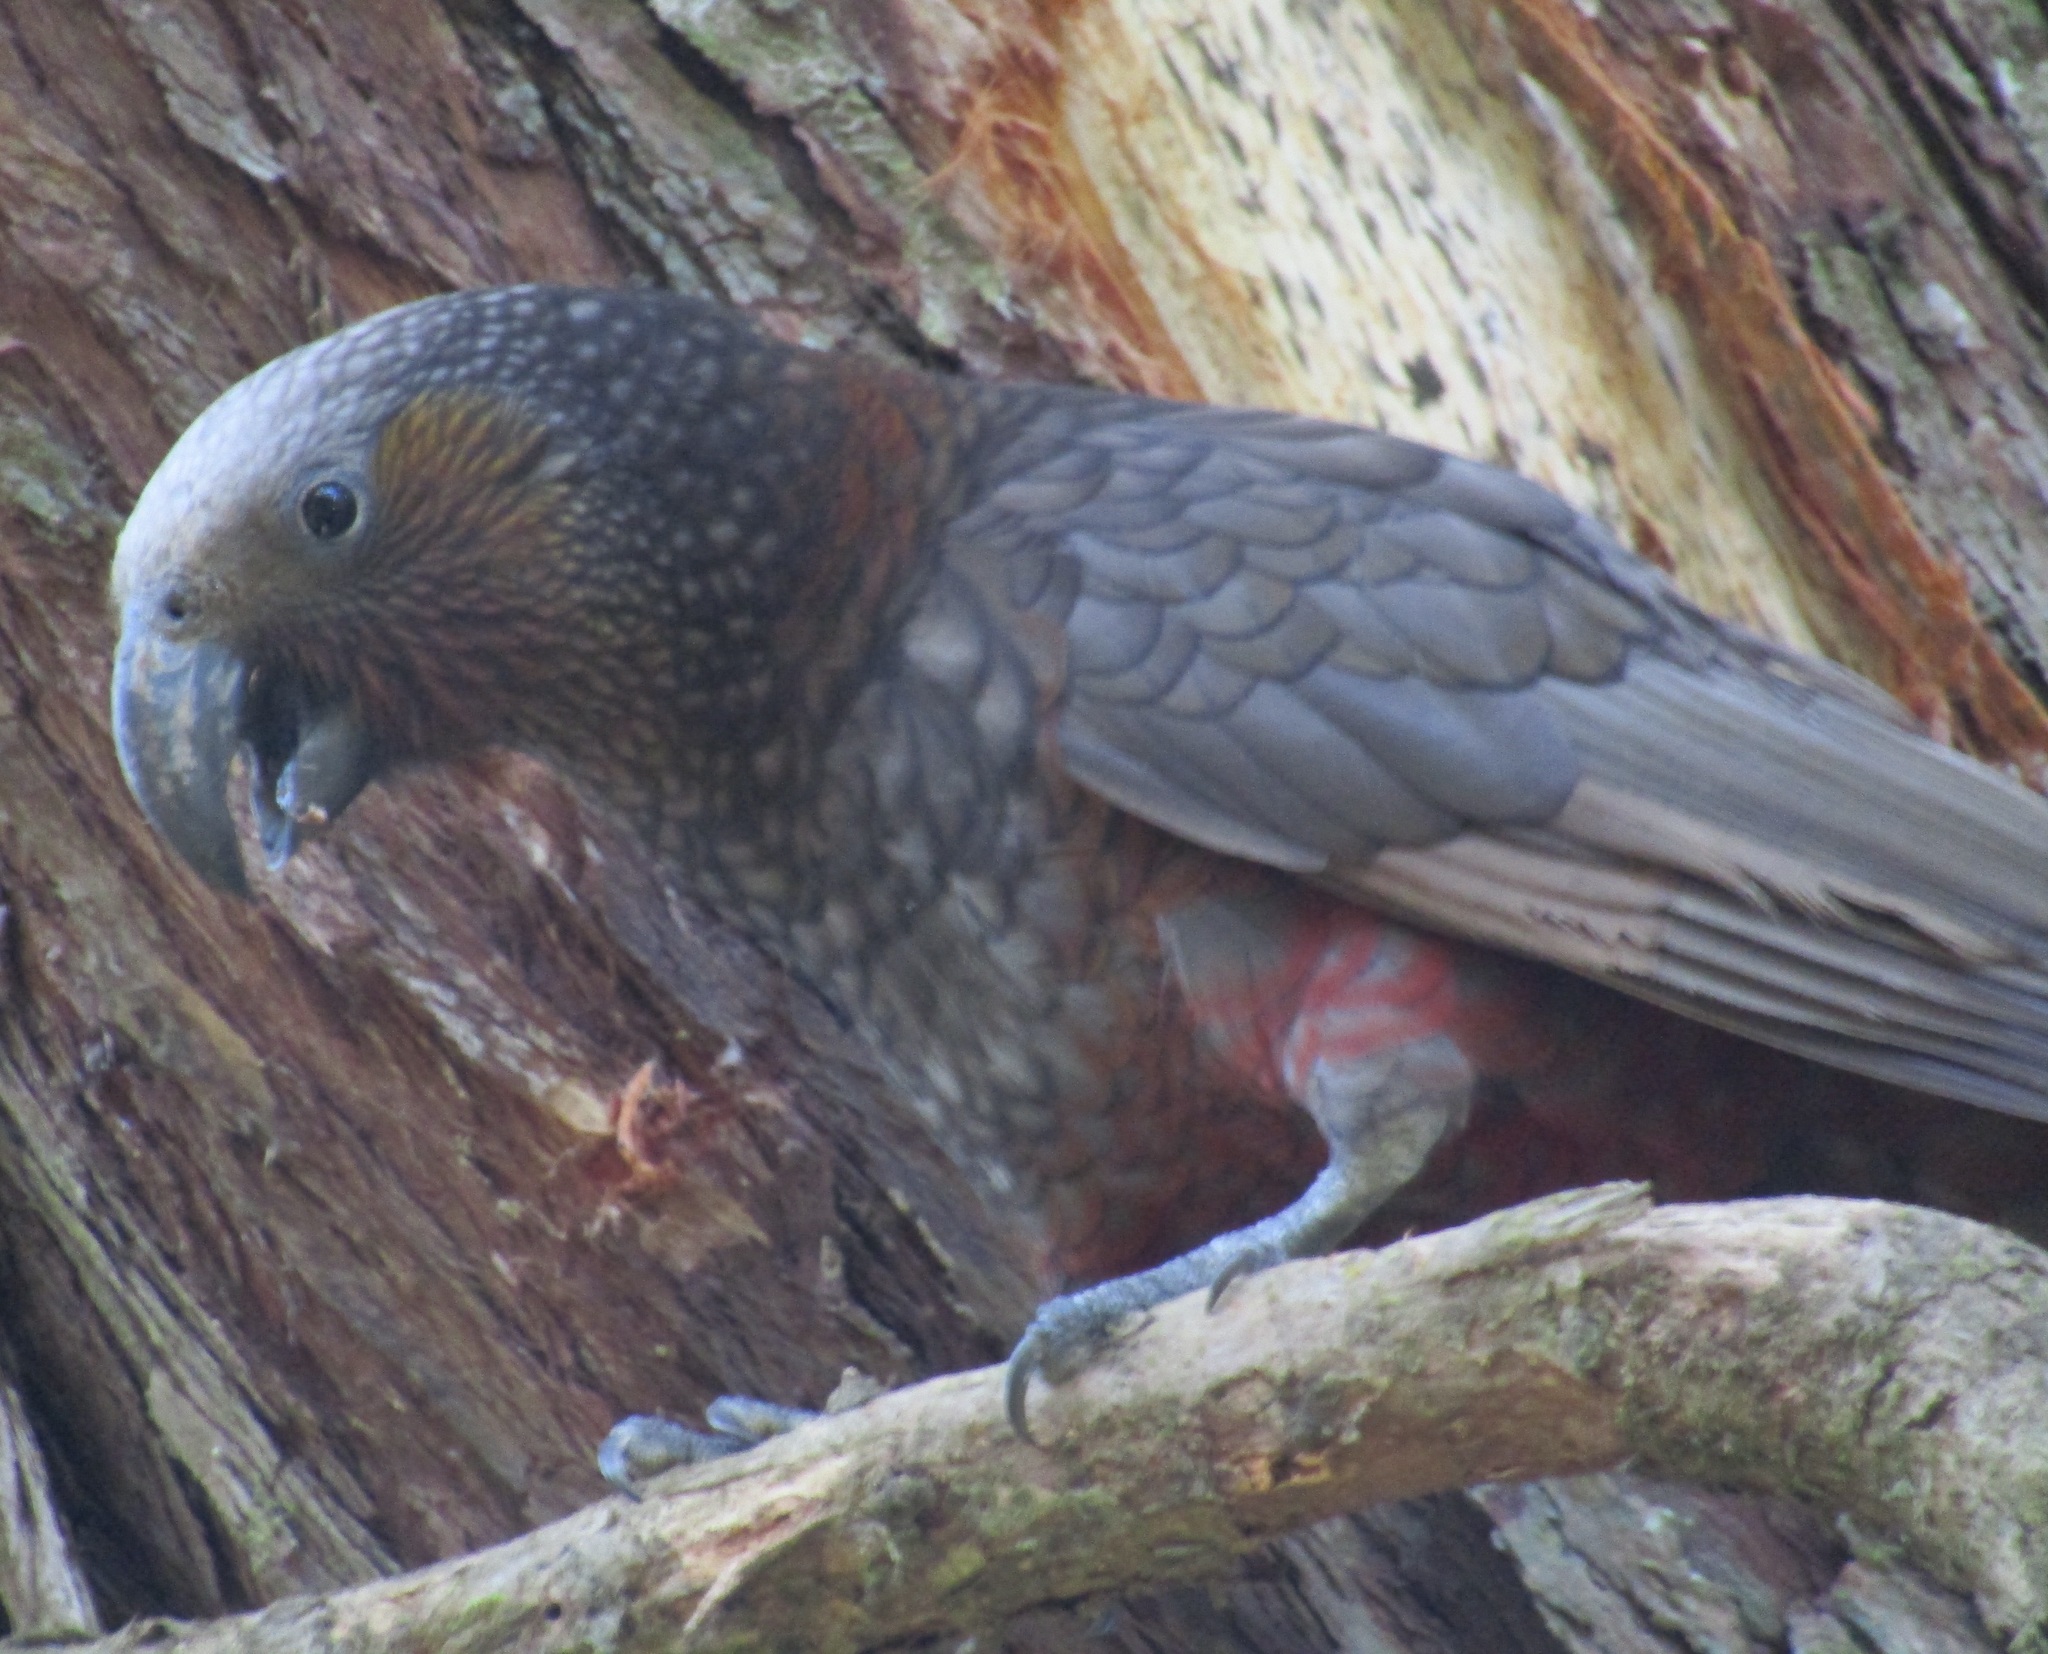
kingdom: Animalia
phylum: Chordata
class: Aves
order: Psittaciformes
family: Psittacidae
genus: Nestor
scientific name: Nestor meridionalis
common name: New zealand kaka
